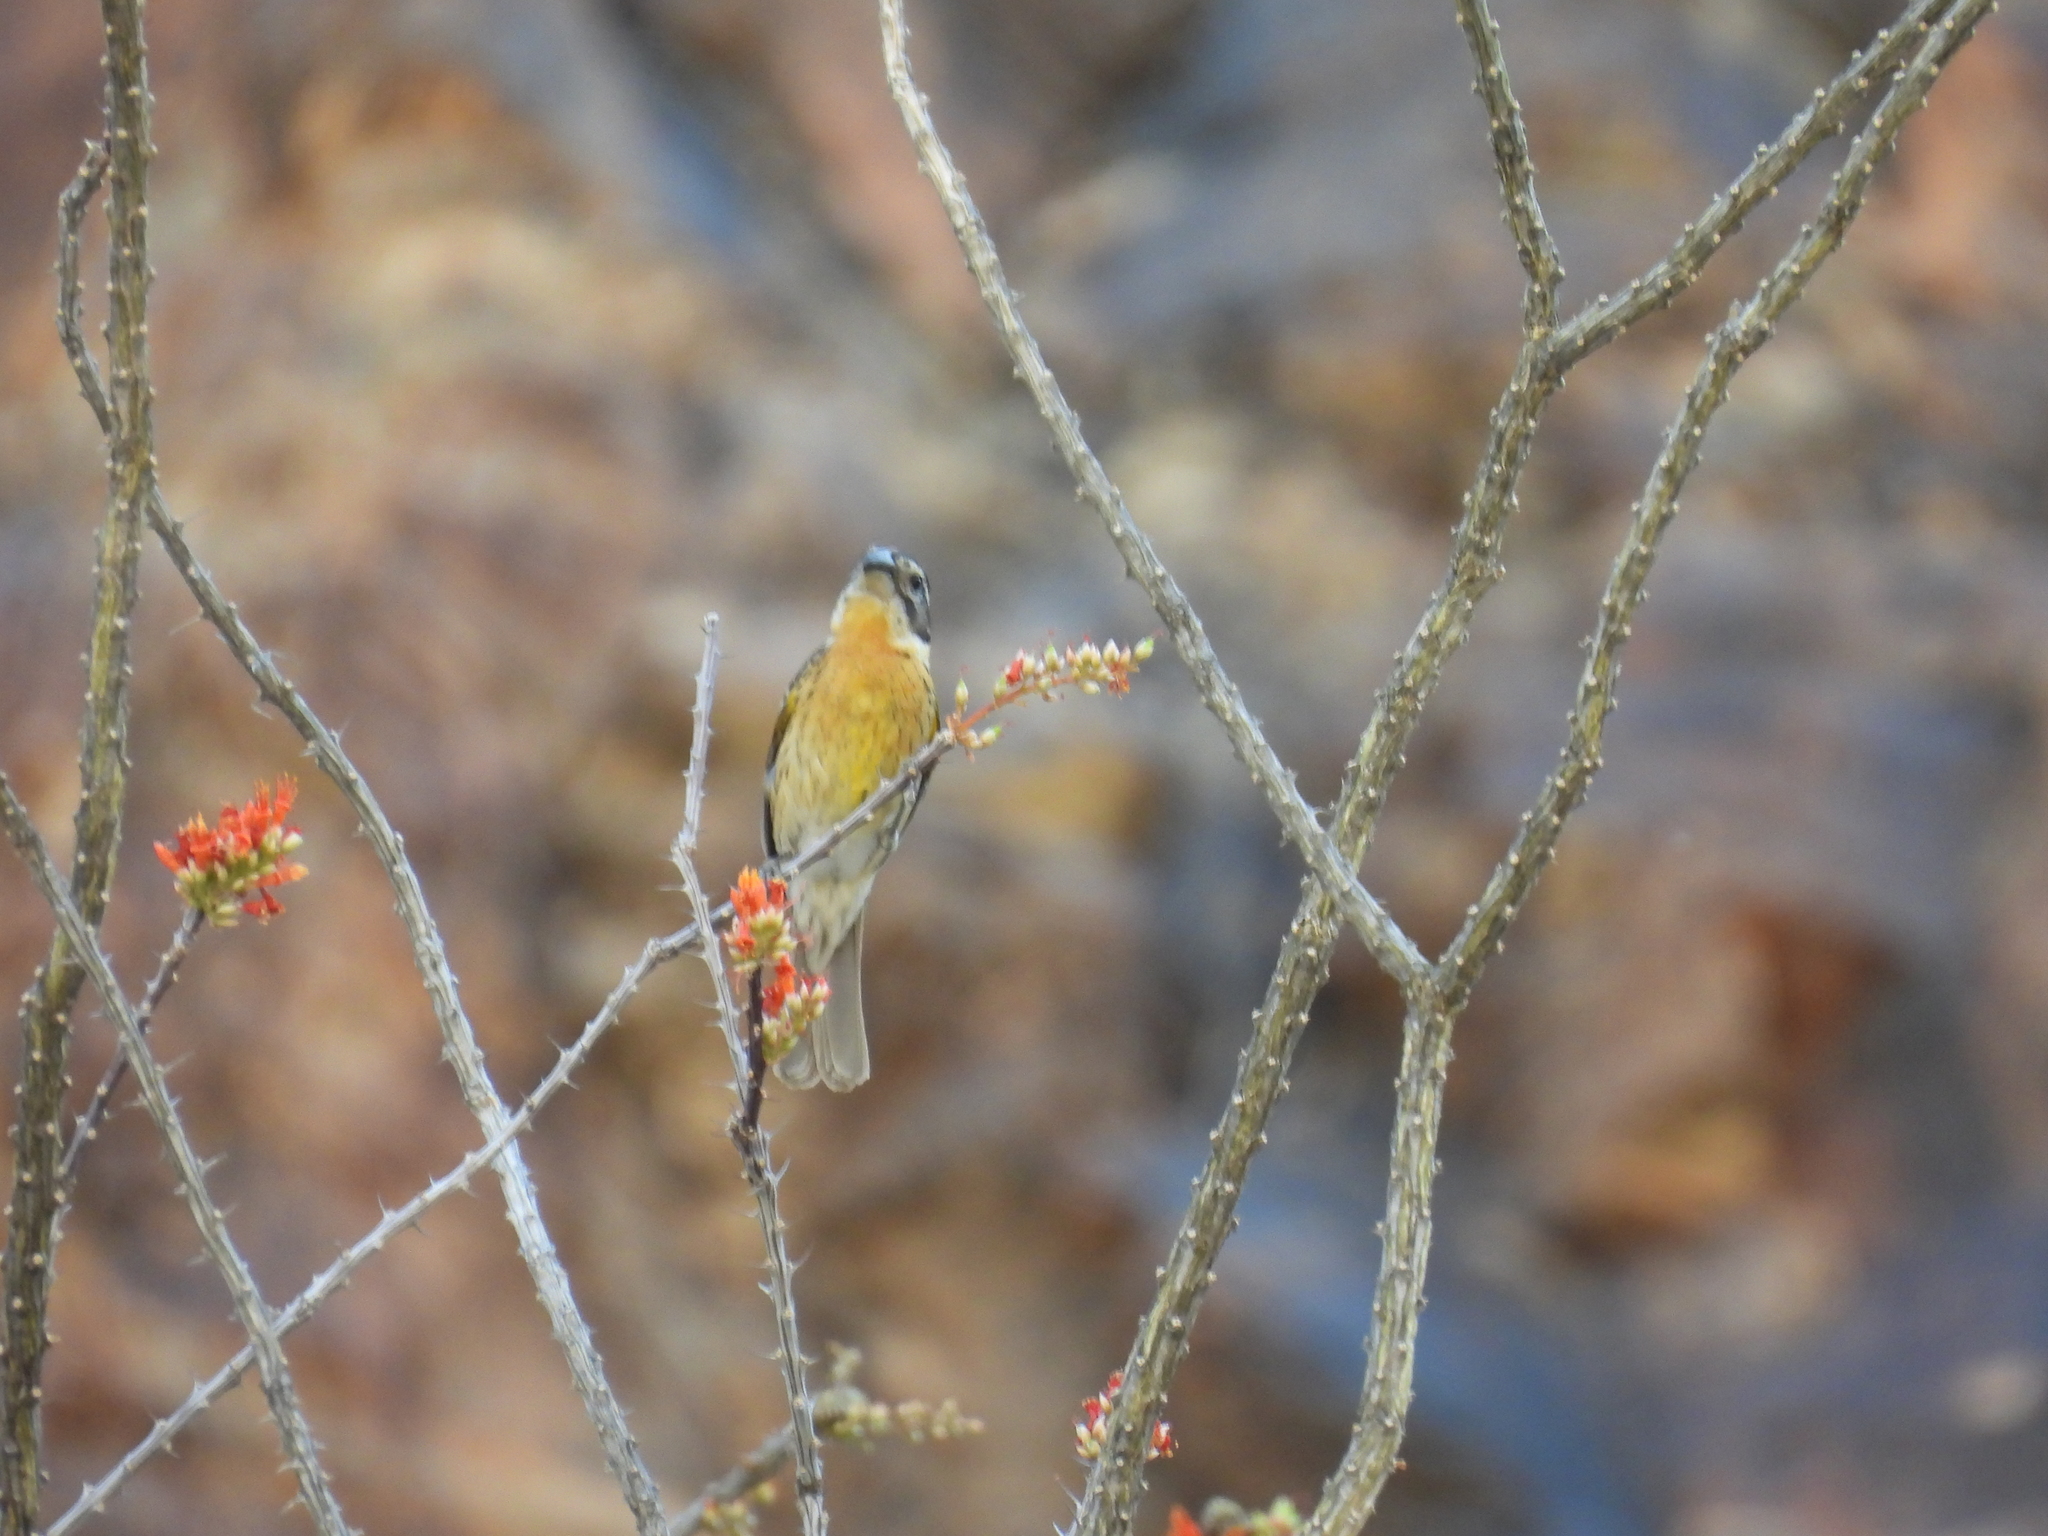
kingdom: Animalia
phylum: Chordata
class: Aves
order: Passeriformes
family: Cardinalidae
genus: Pheucticus
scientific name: Pheucticus melanocephalus
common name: Black-headed grosbeak
